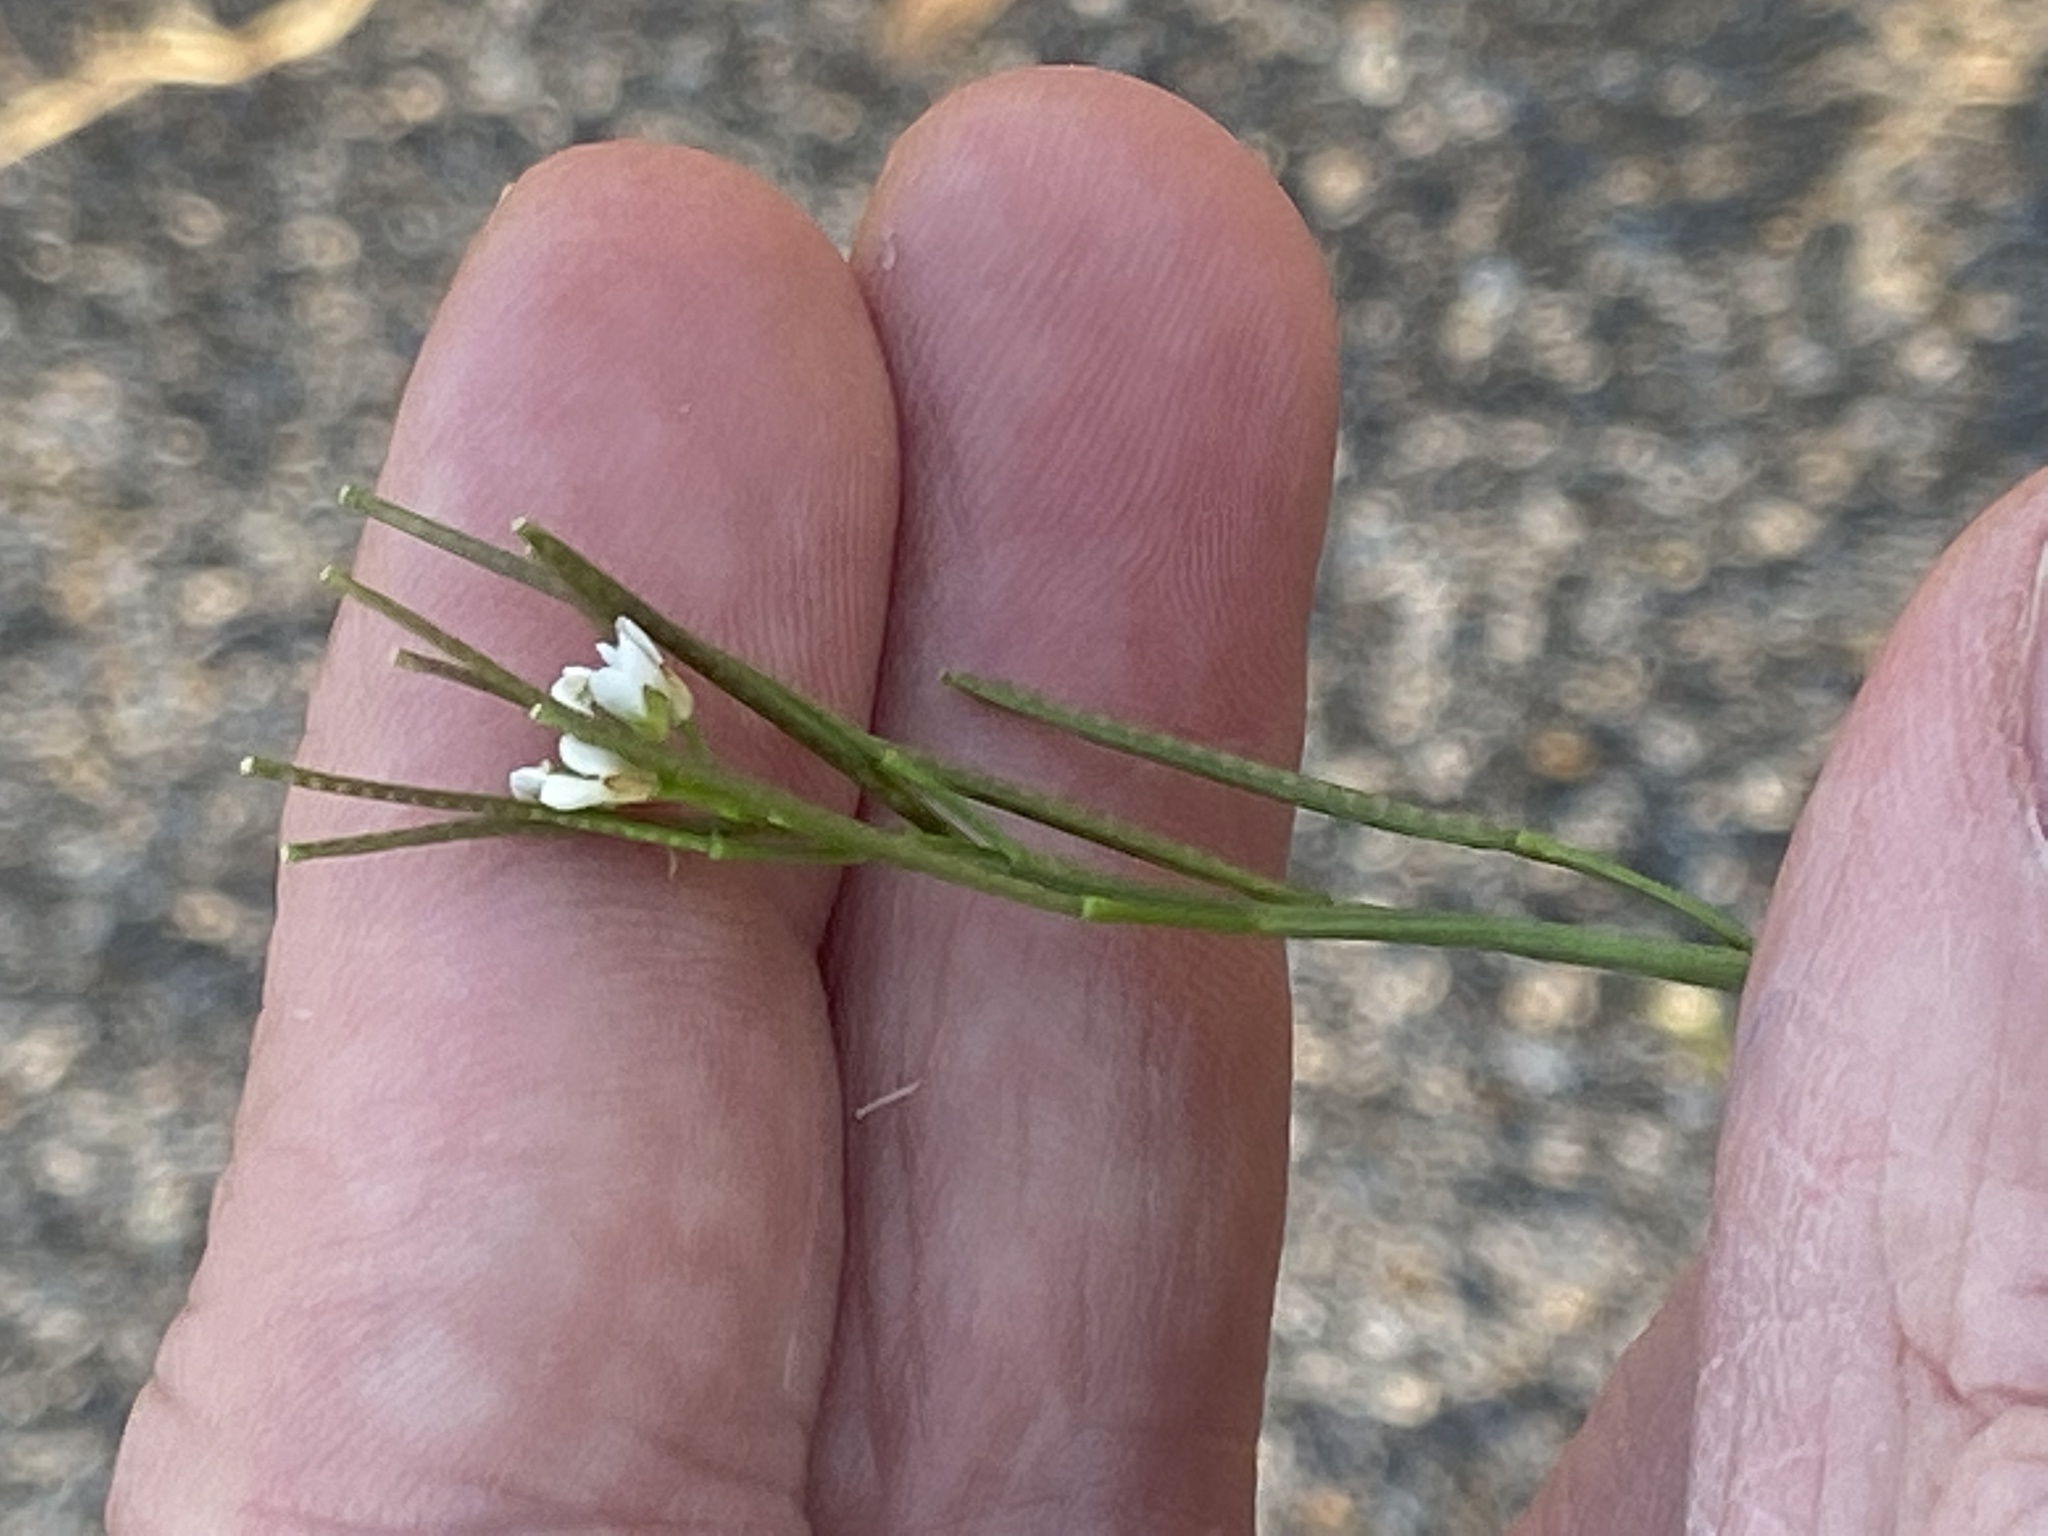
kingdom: Plantae
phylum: Tracheophyta
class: Magnoliopsida
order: Brassicales
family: Brassicaceae
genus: Cardamine
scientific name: Cardamine hirsuta
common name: Hairy bittercress
